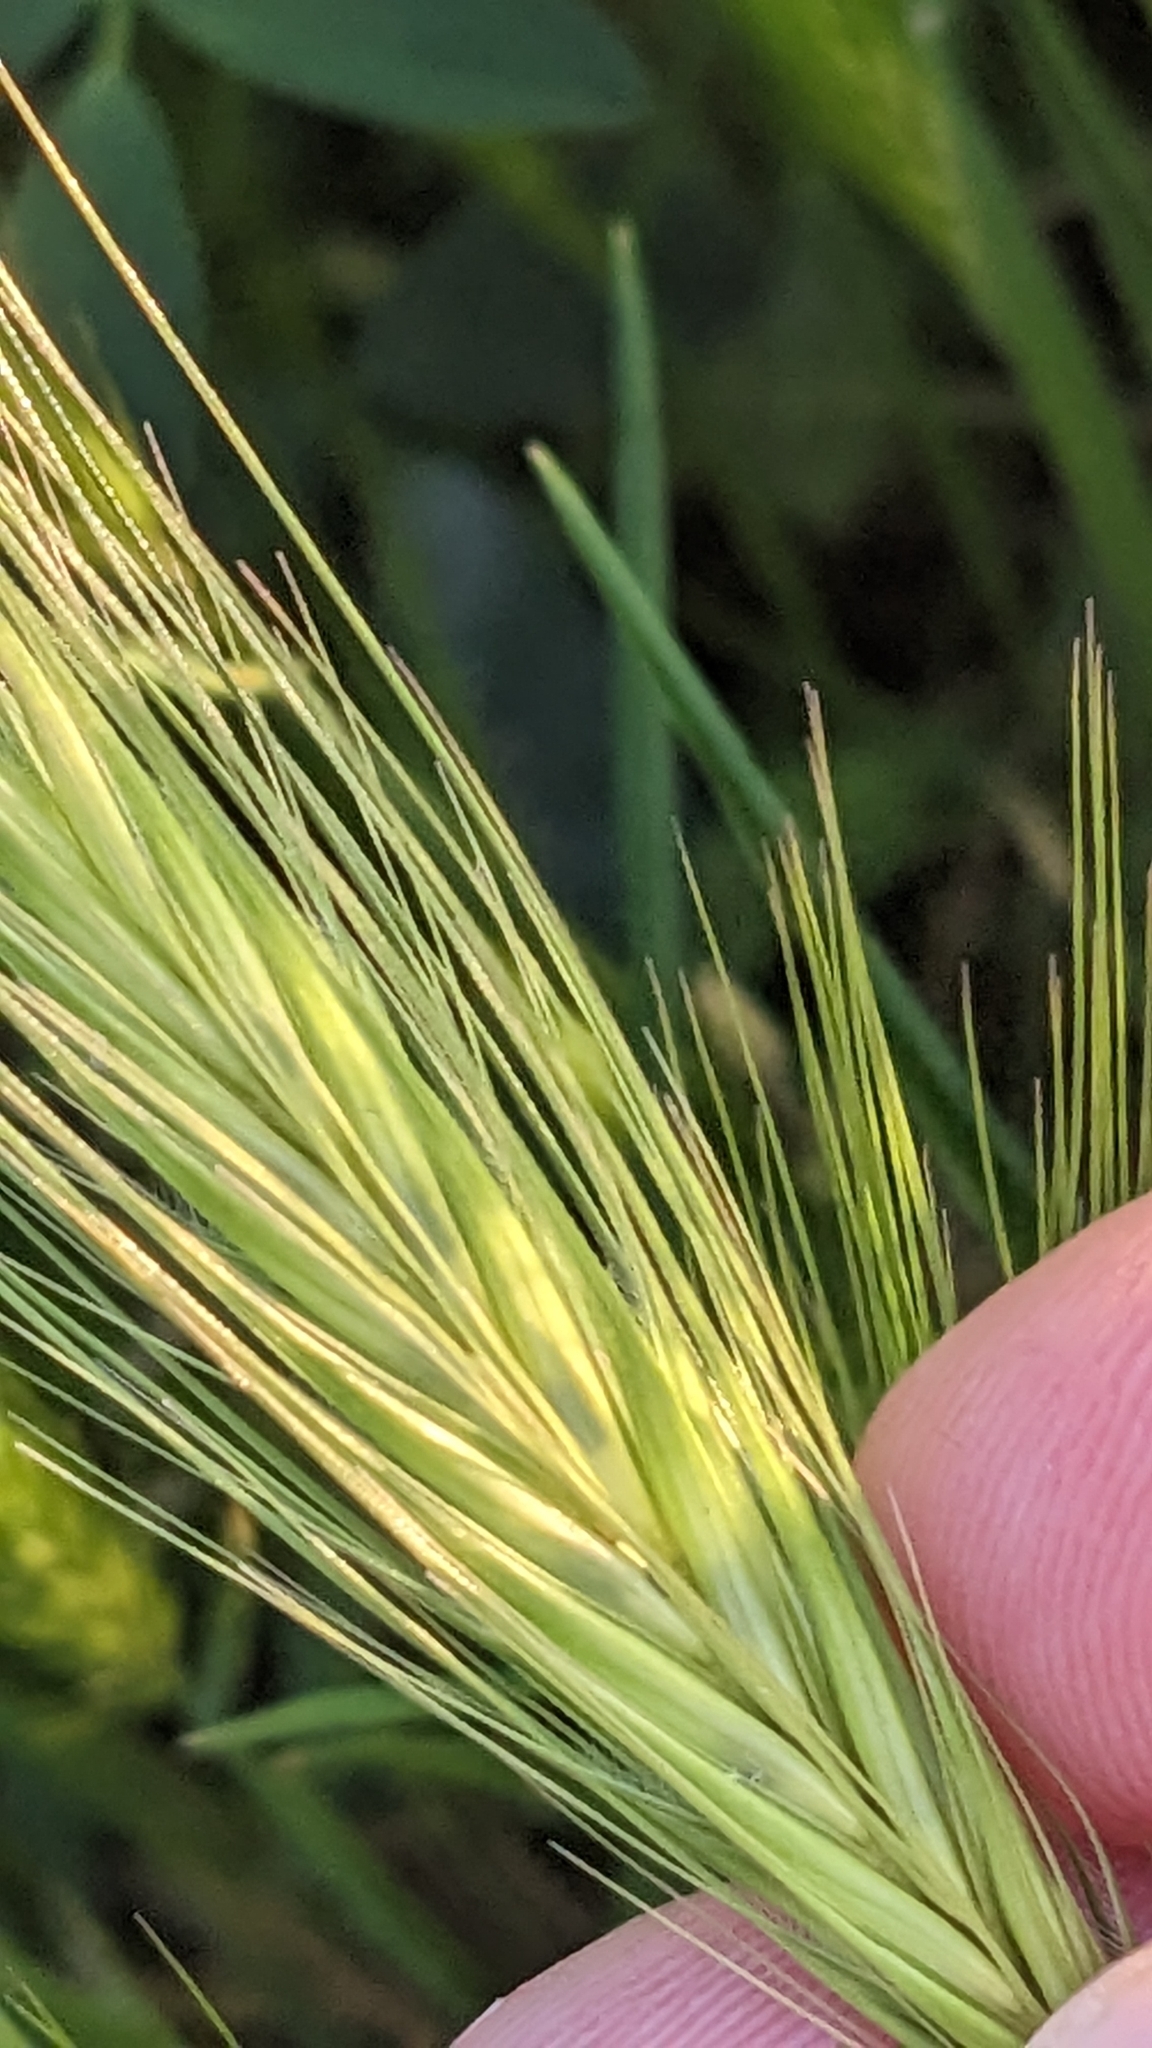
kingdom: Plantae
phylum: Tracheophyta
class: Liliopsida
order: Poales
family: Poaceae
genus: Hordeum
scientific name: Hordeum murinum
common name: Wall barley
